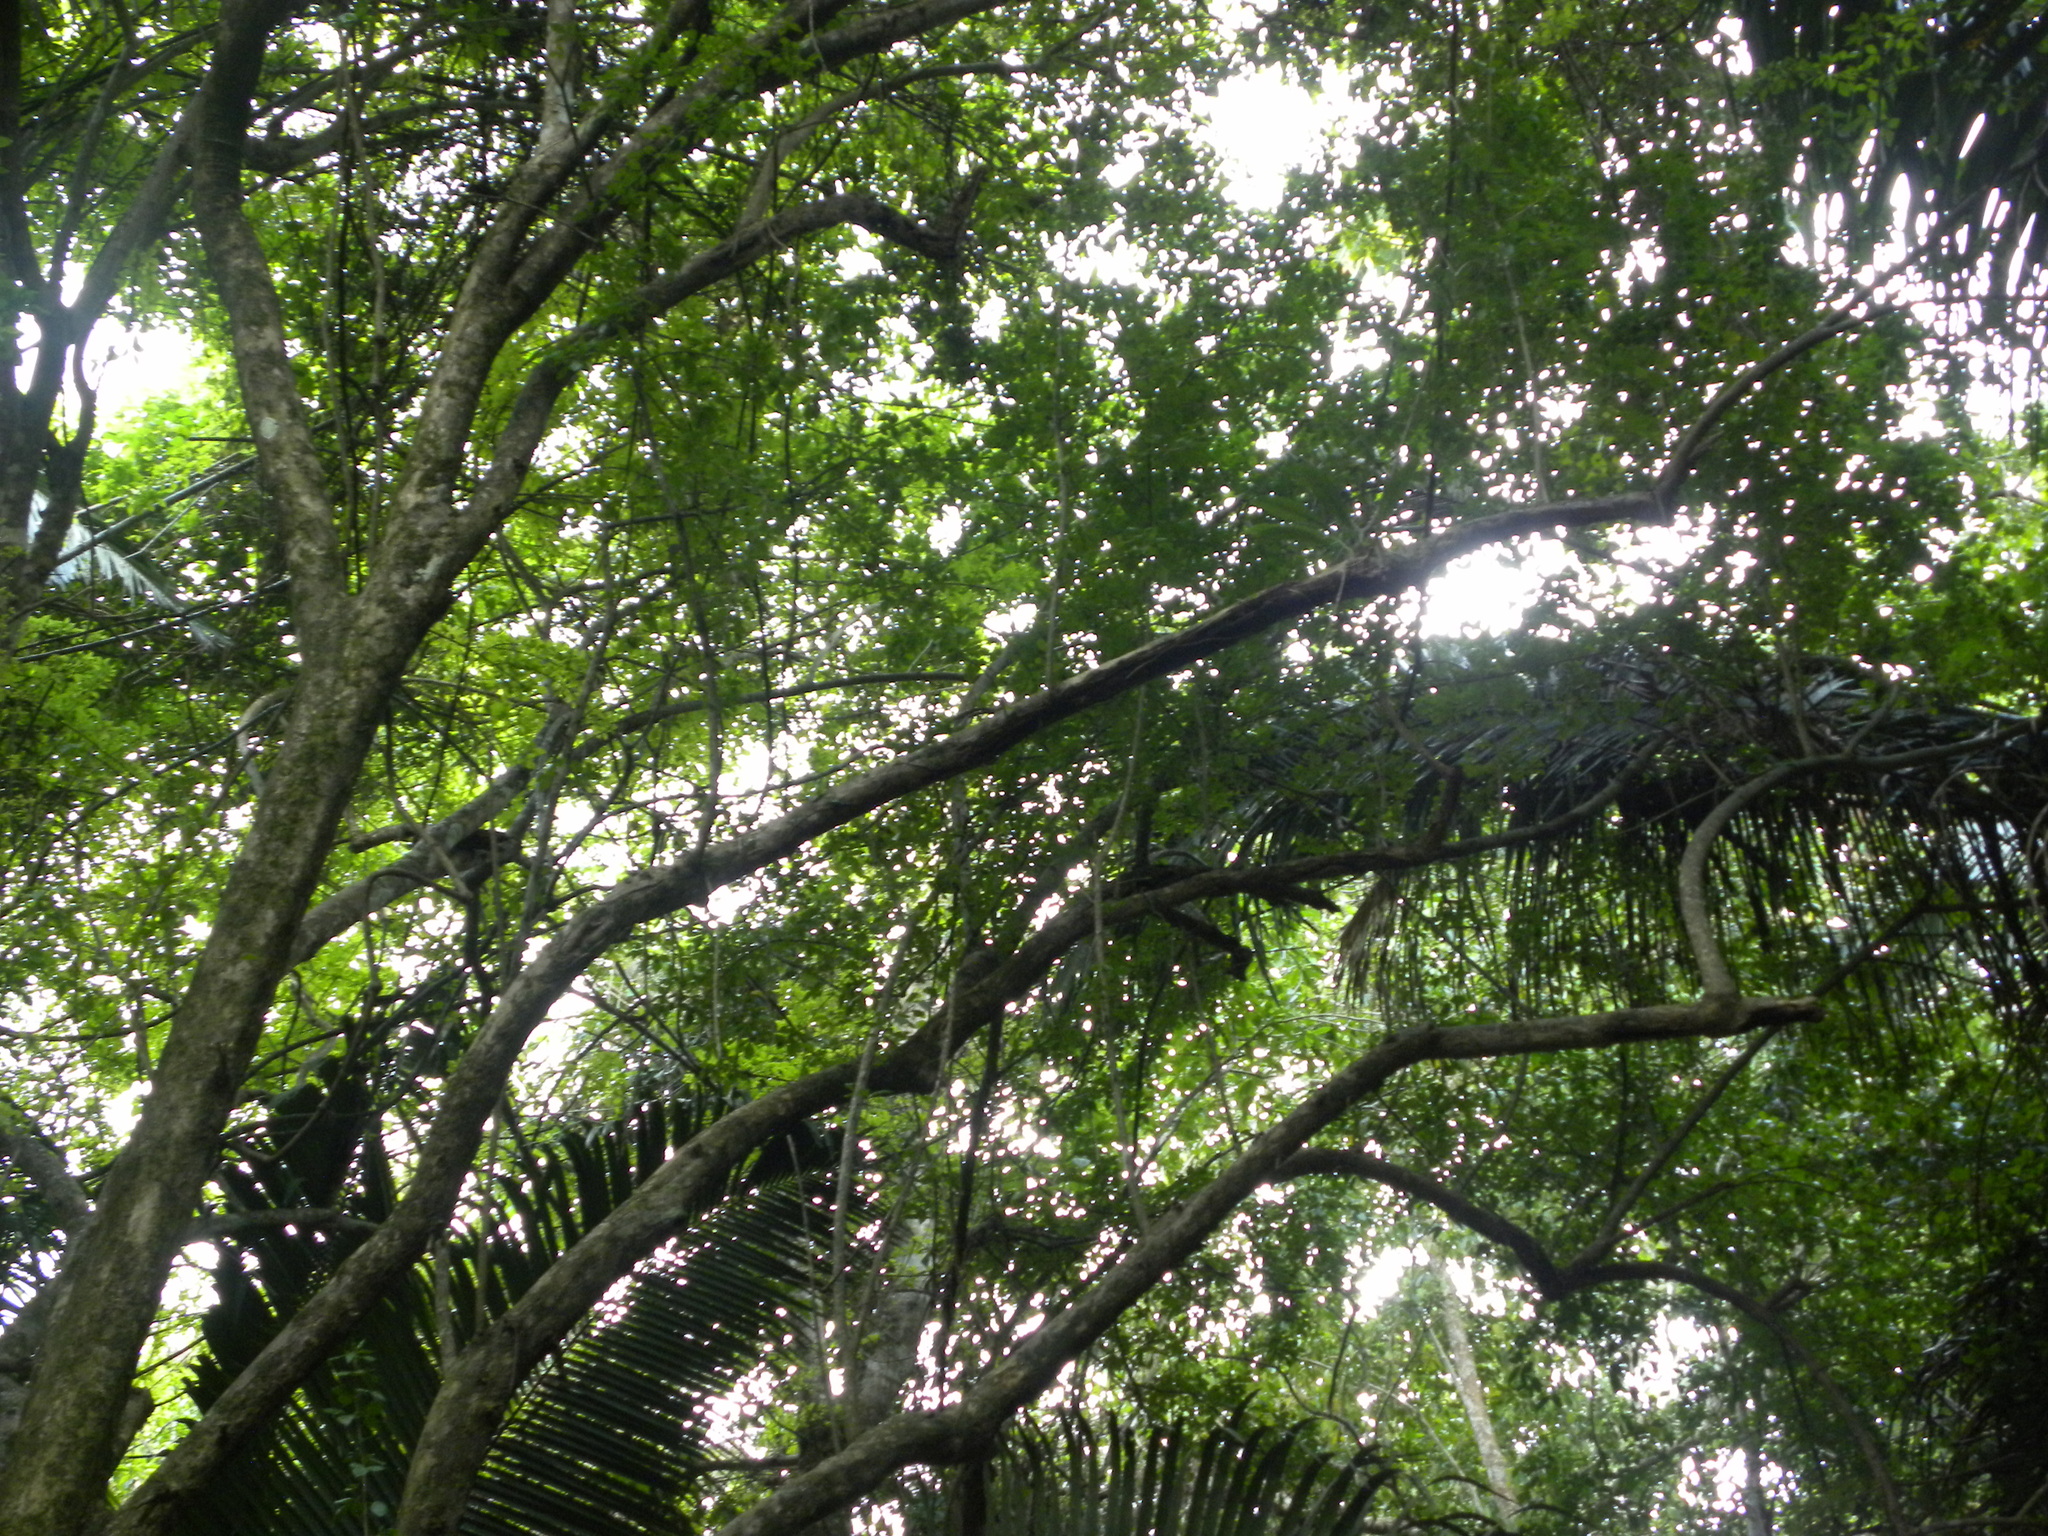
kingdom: Animalia
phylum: Chordata
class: Mammalia
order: Primates
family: Atelidae
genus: Alouatta
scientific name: Alouatta pigra
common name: Guatemalan black howler
